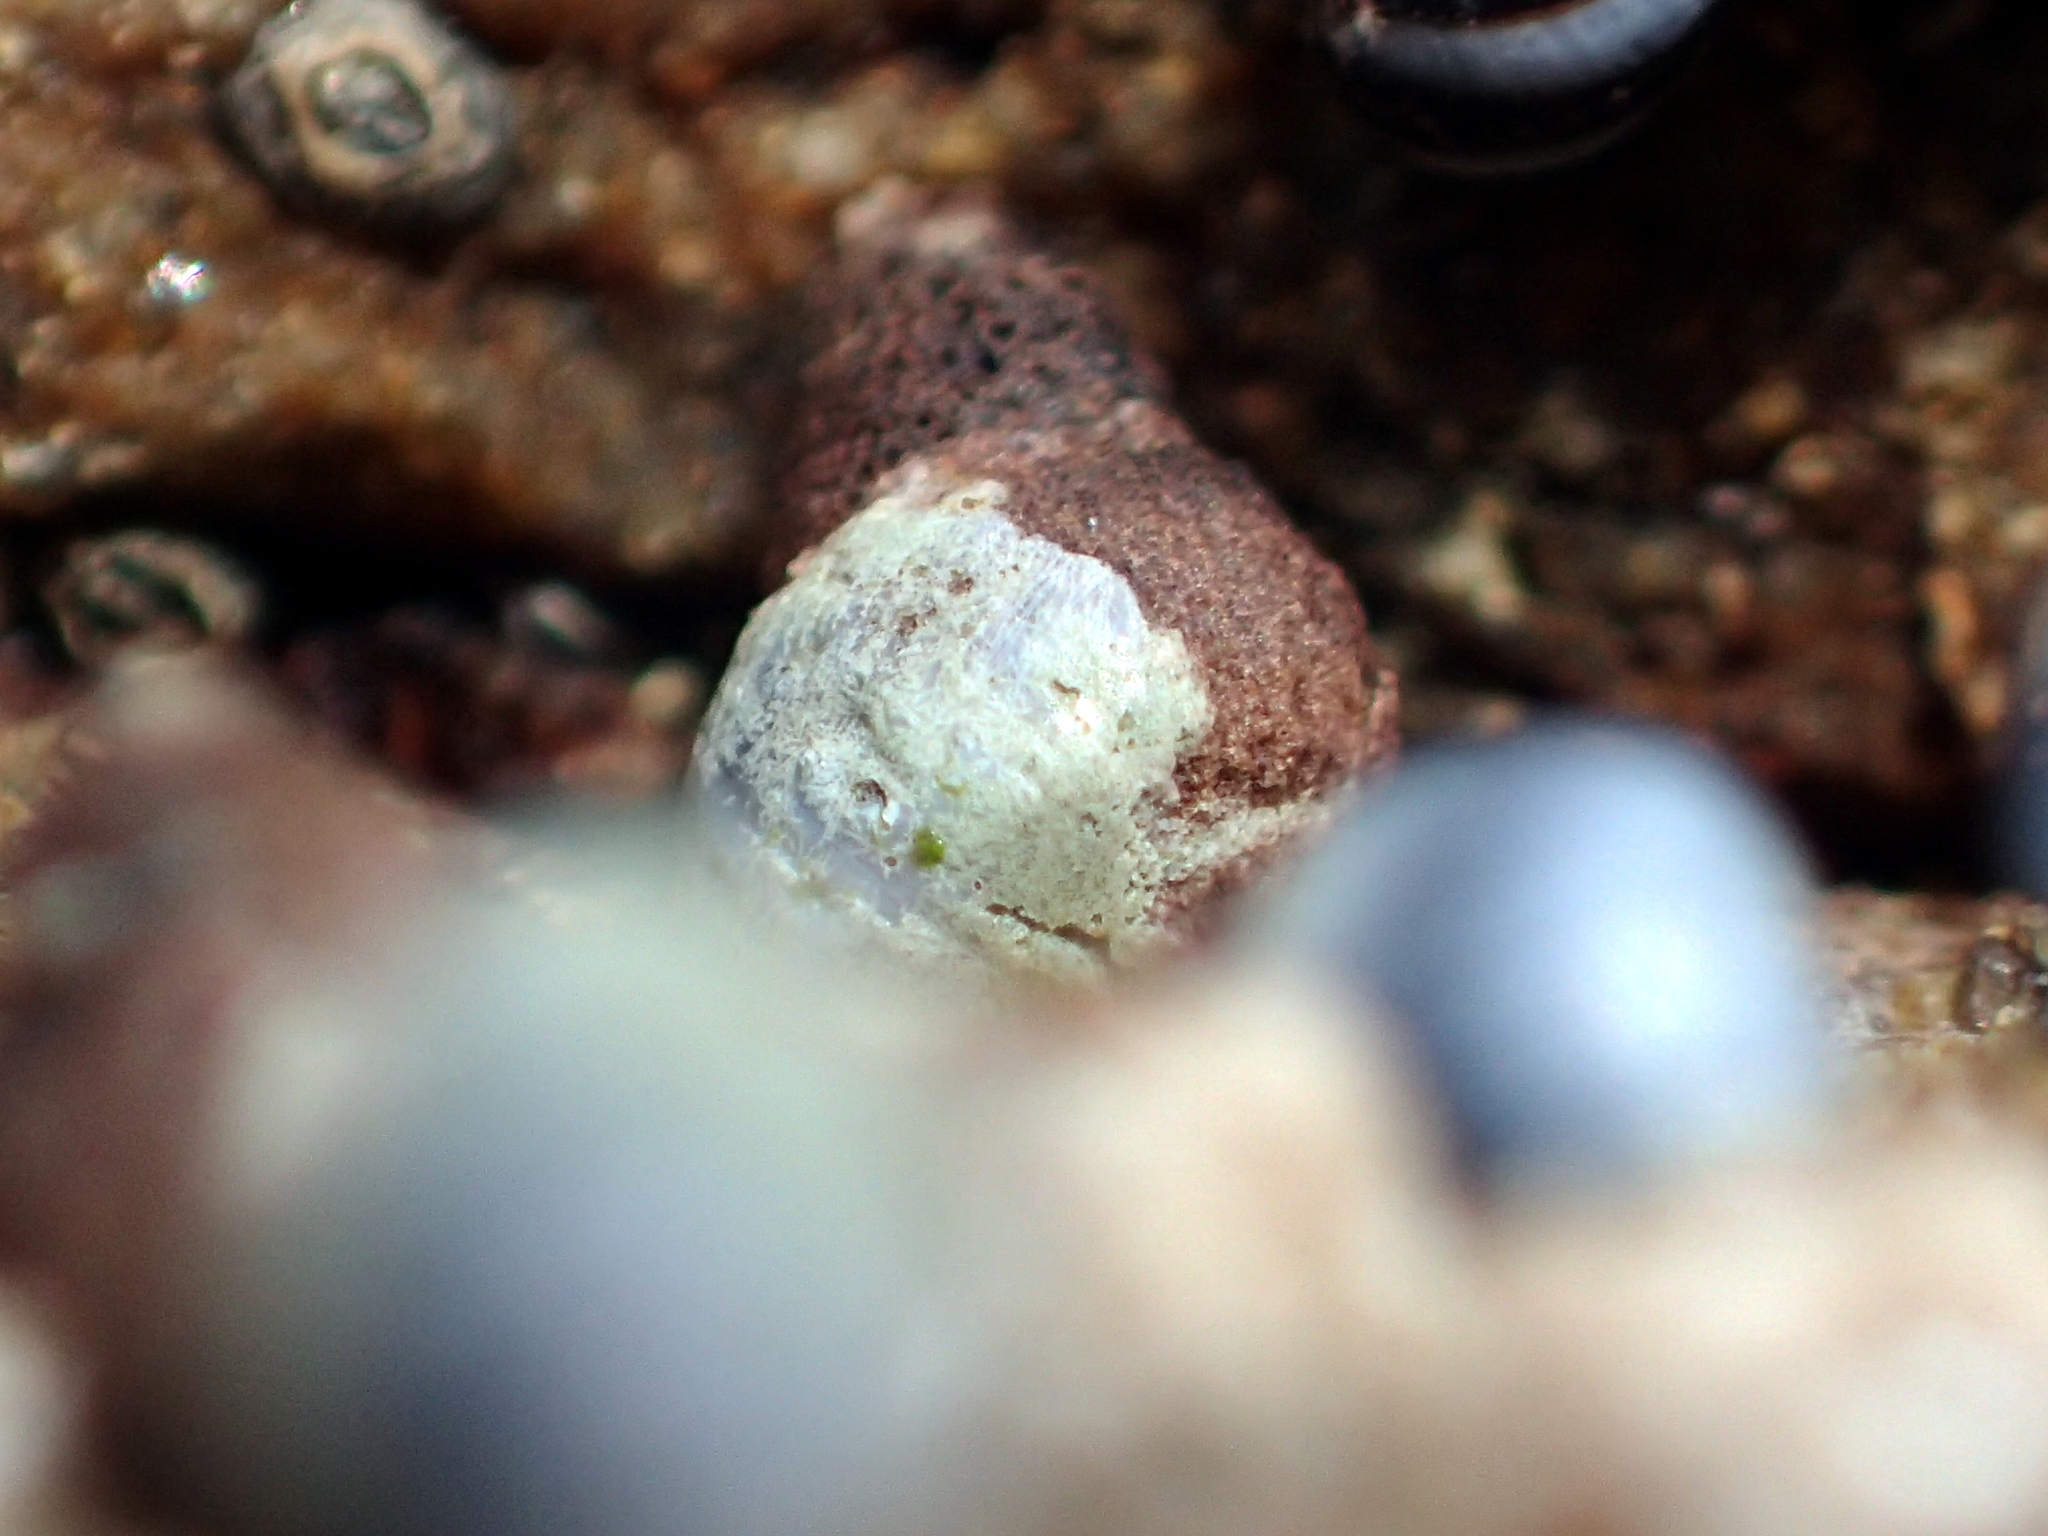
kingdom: Animalia
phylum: Mollusca
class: Gastropoda
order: Littorinimorpha
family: Littorinidae
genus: Austrolittorina
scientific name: Austrolittorina antipodum
